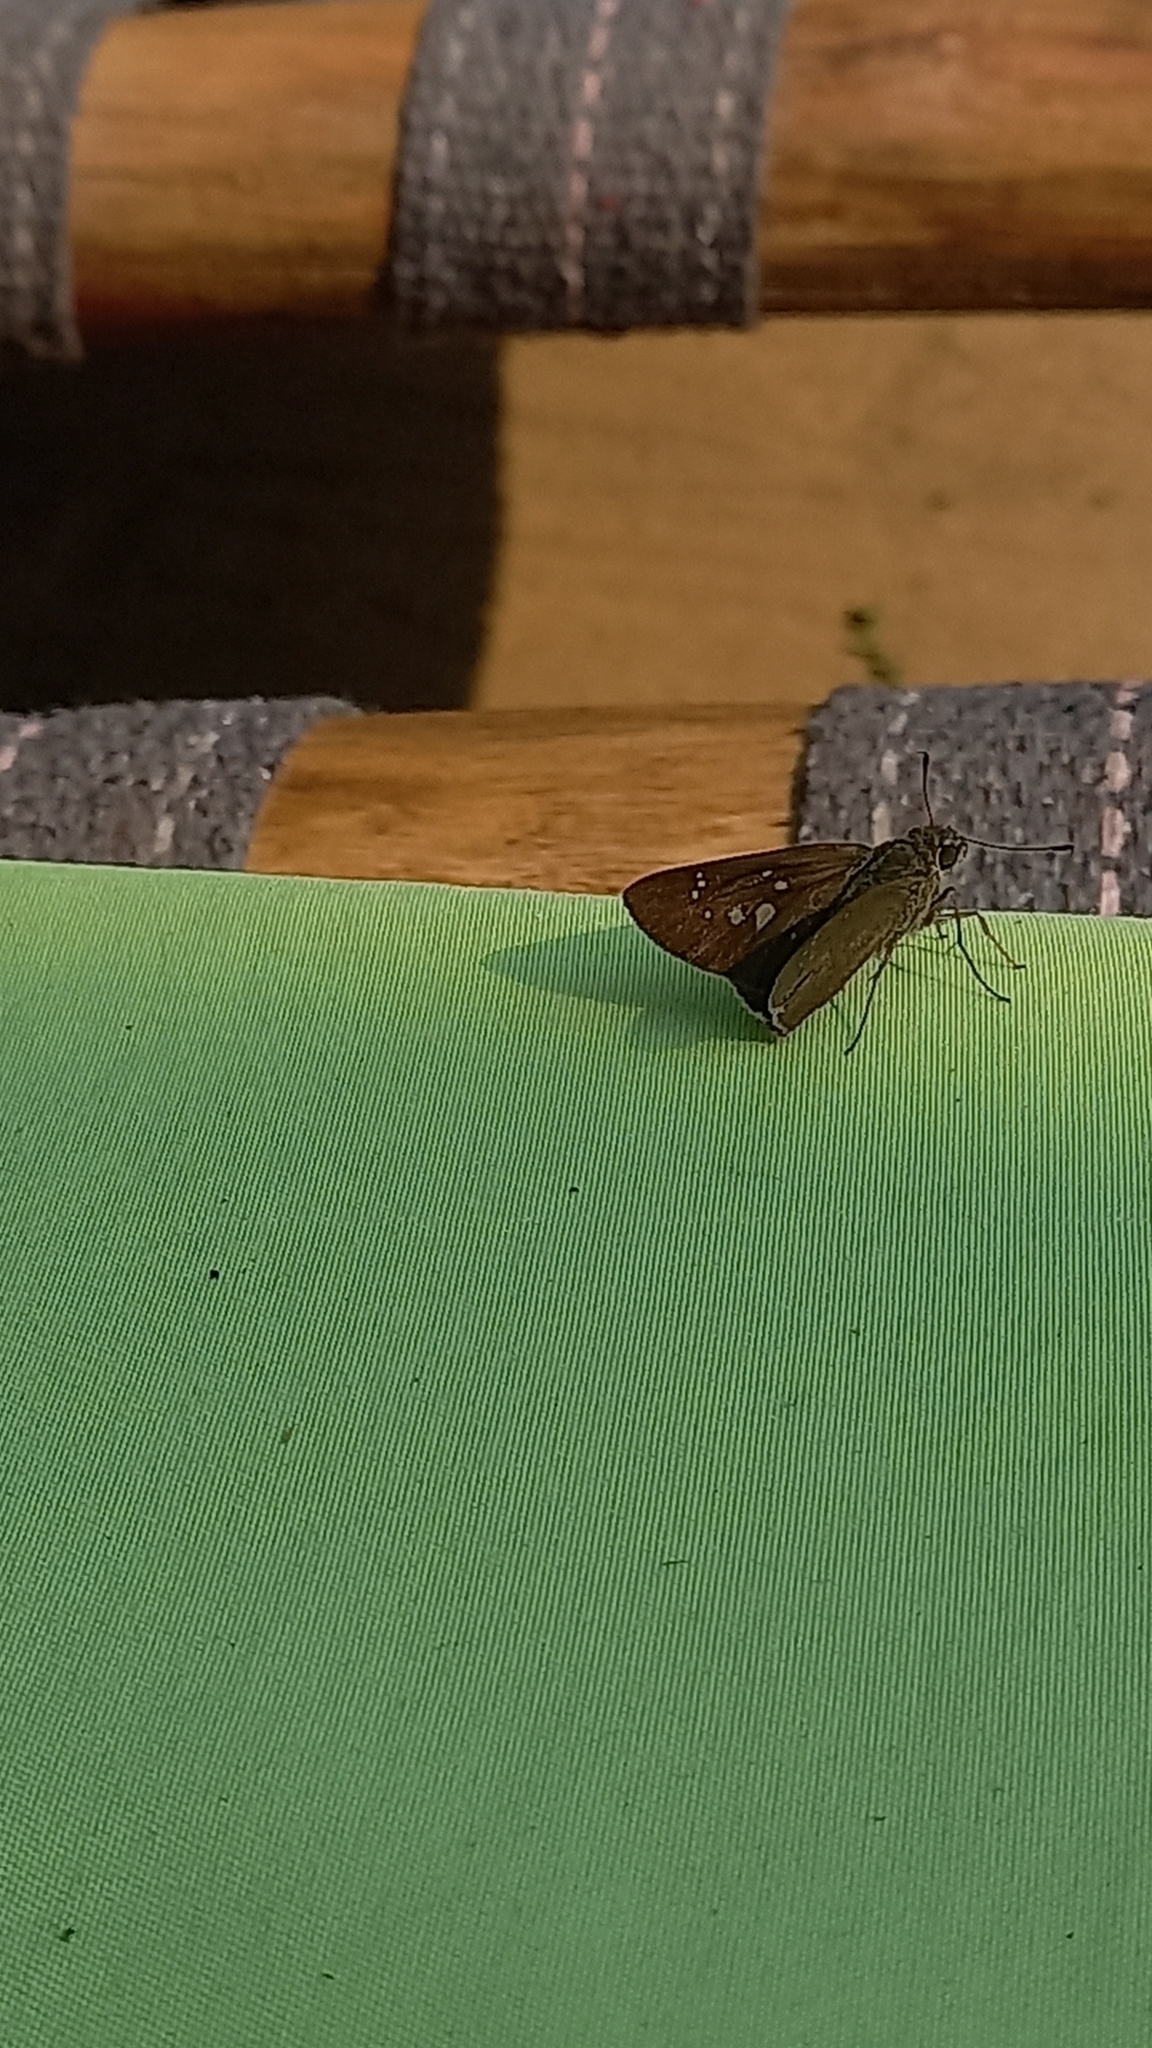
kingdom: Animalia
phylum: Arthropoda
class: Insecta
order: Lepidoptera
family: Hesperiidae
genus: Baoris
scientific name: Baoris farri
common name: Paintbrush swift
